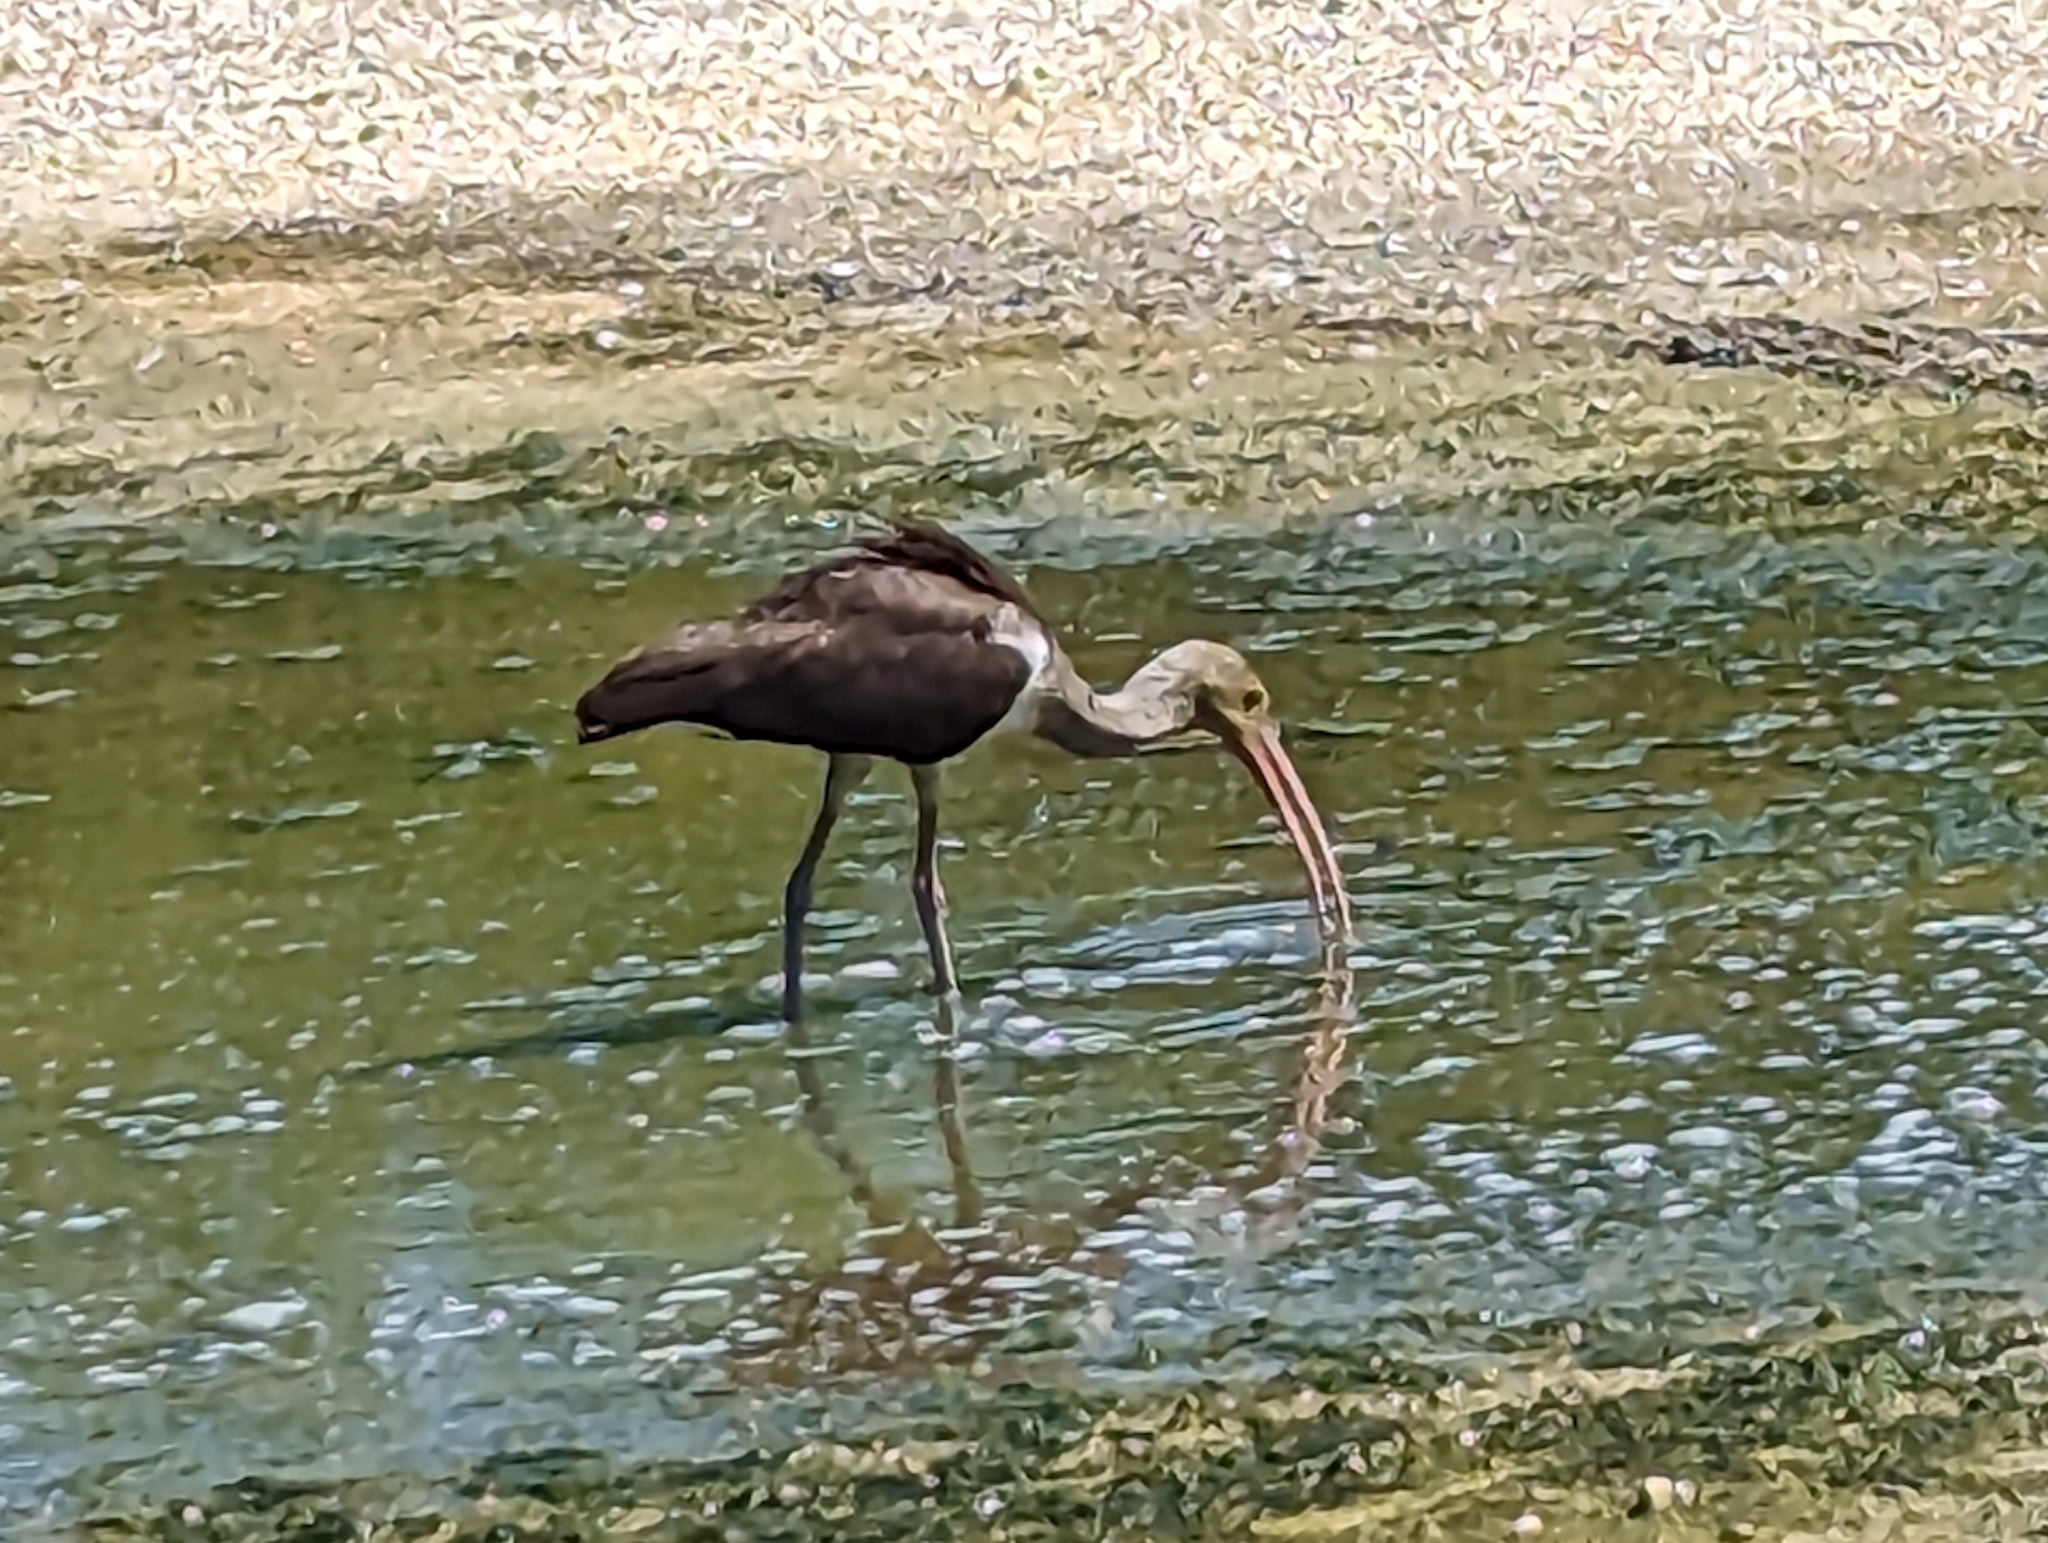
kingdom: Animalia
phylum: Chordata
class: Aves
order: Pelecaniformes
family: Threskiornithidae
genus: Eudocimus
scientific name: Eudocimus albus
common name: White ibis
